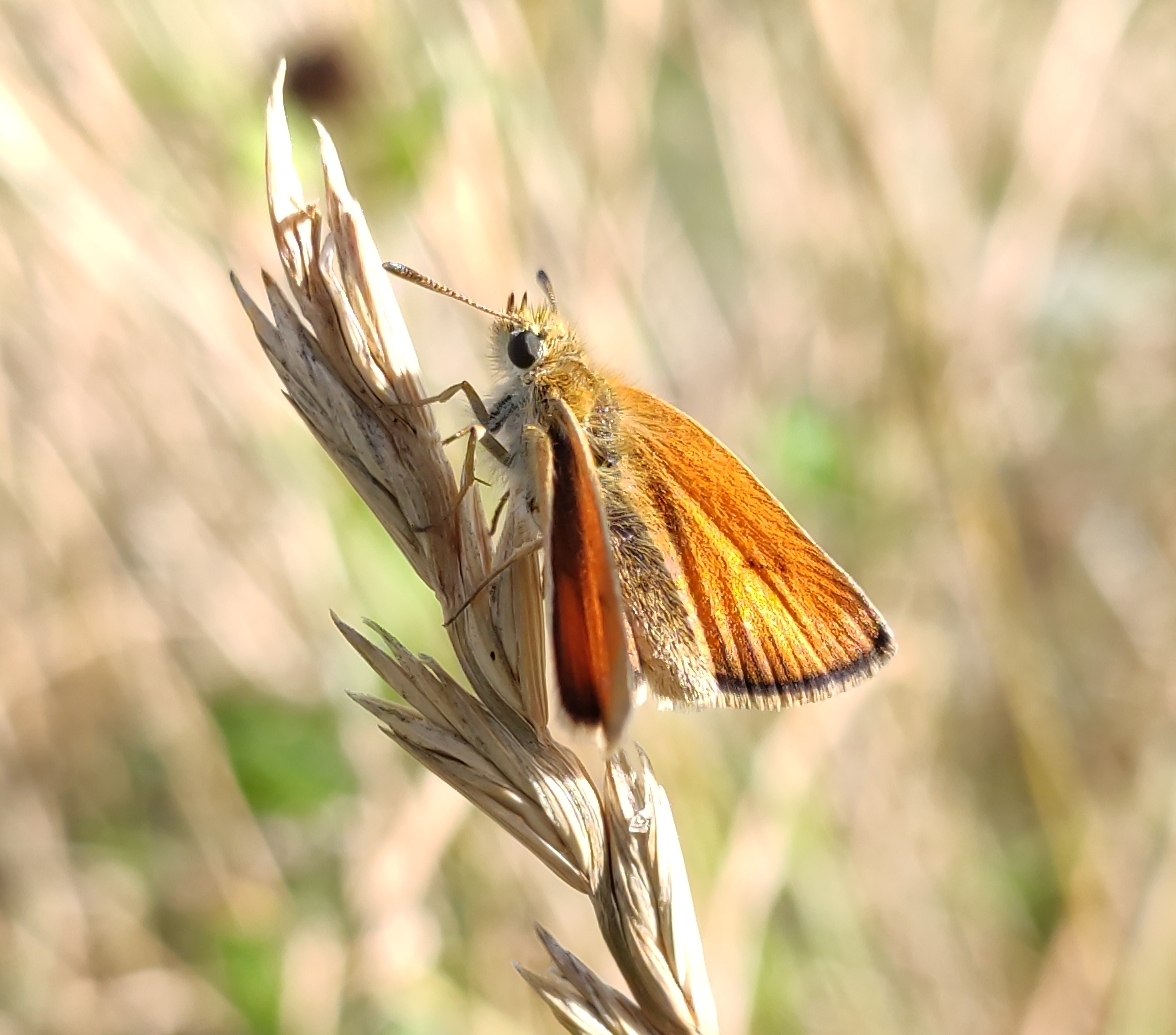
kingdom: Animalia
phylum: Arthropoda
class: Insecta
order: Lepidoptera
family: Hesperiidae
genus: Thymelicus
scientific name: Thymelicus lineola
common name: Essex skipper
